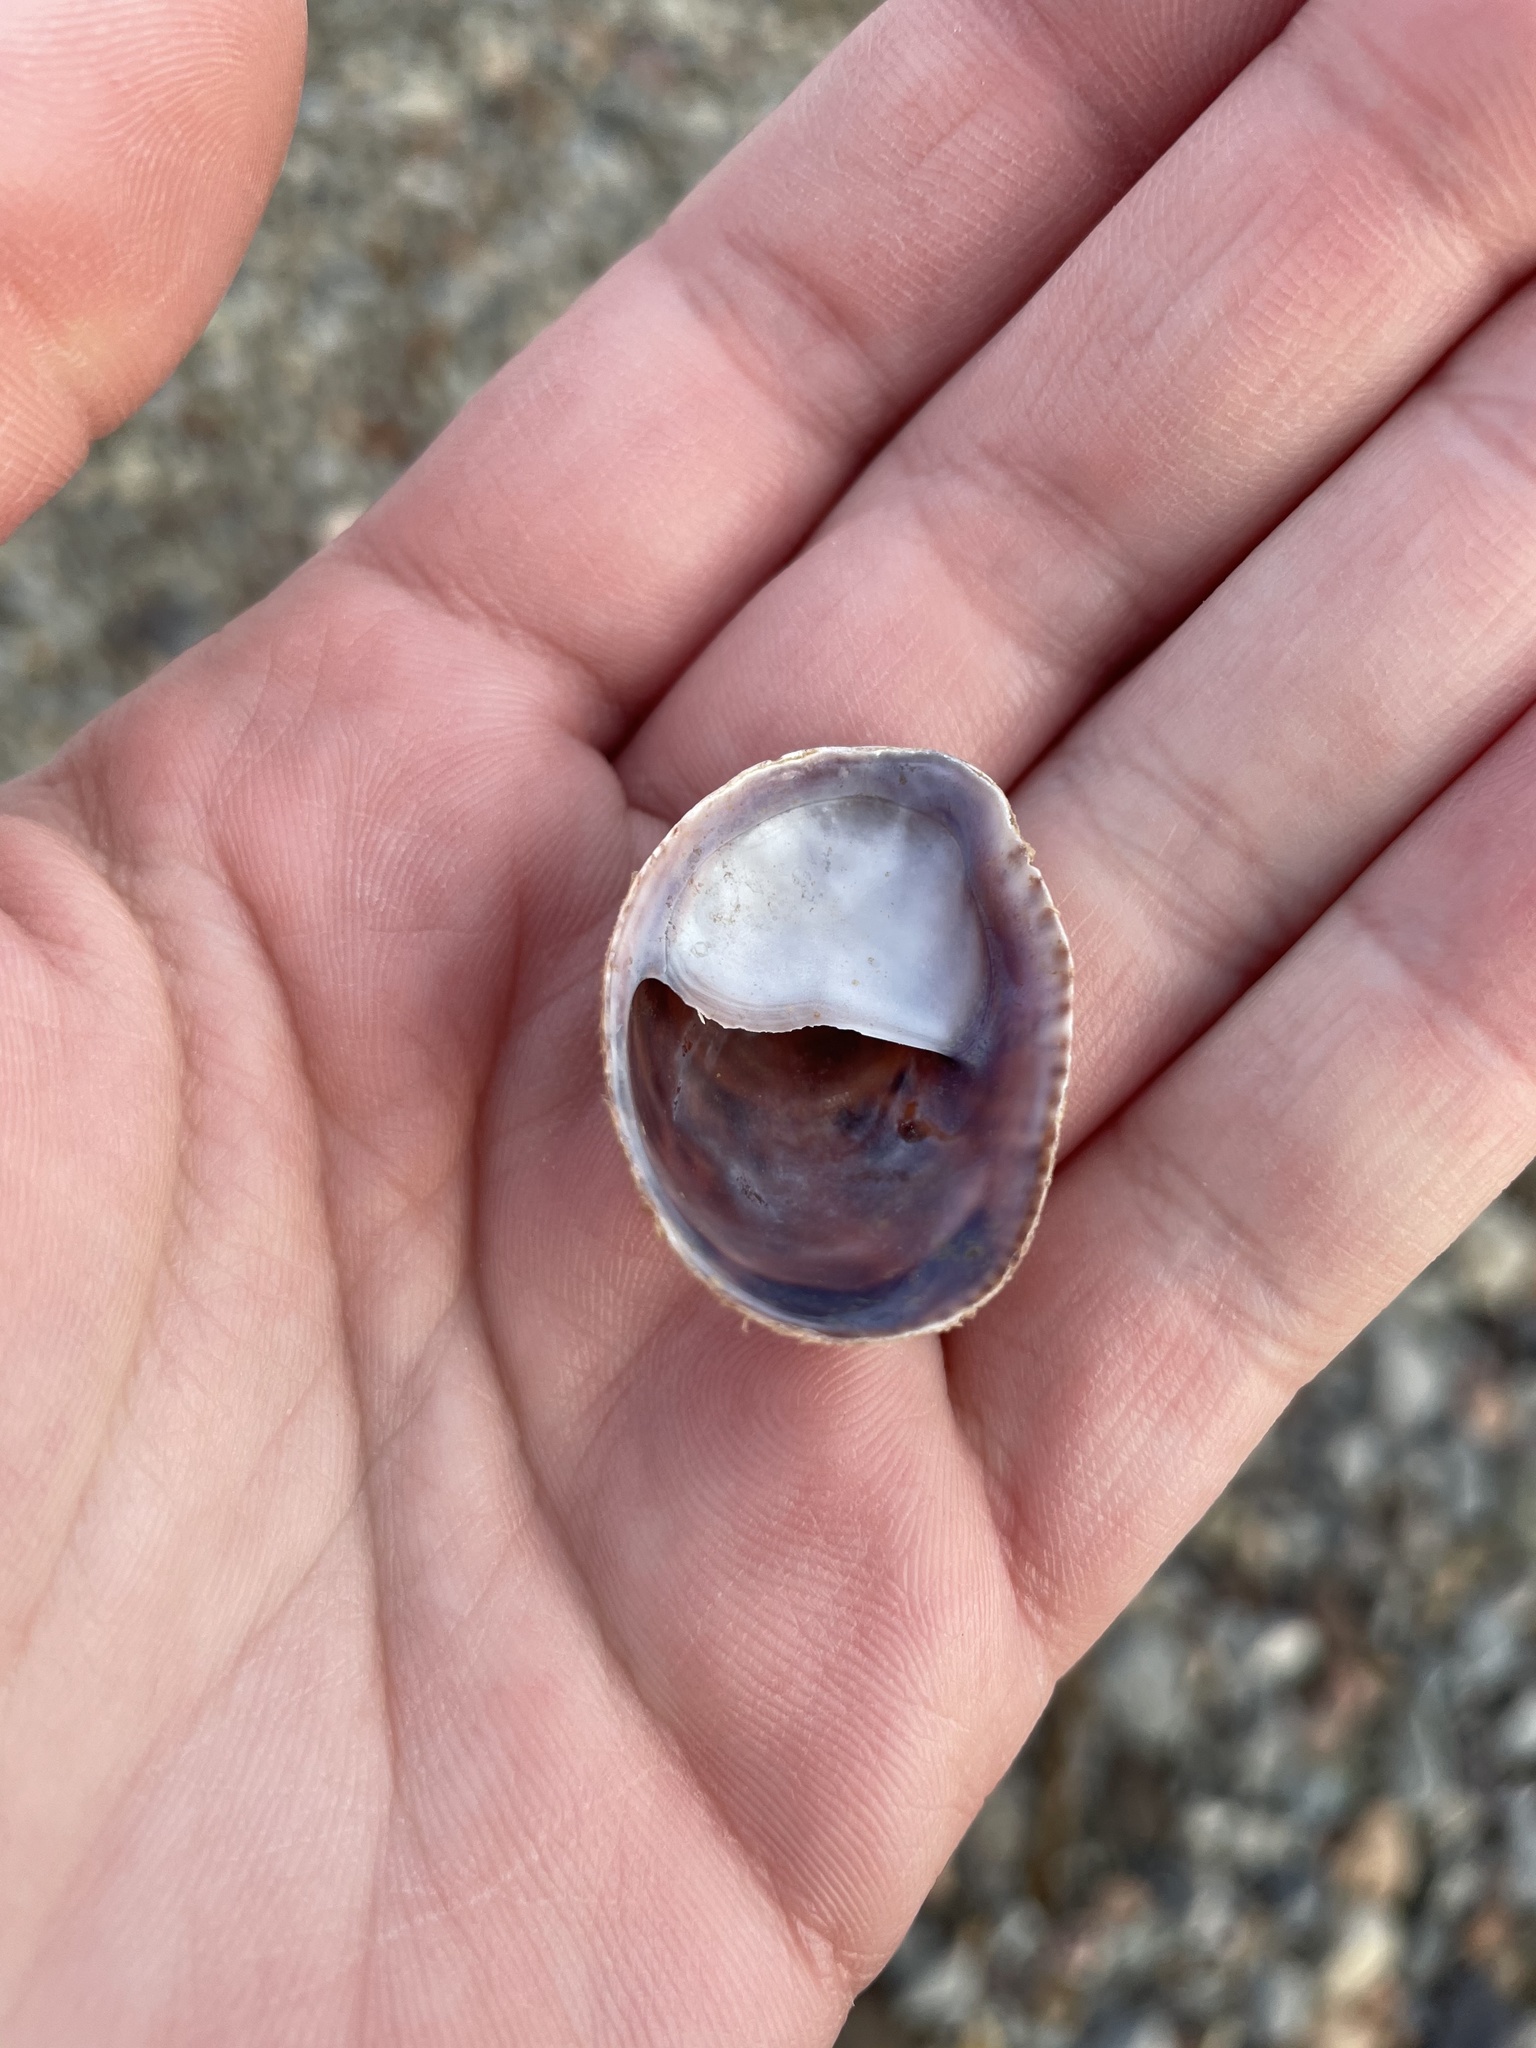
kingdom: Animalia
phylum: Mollusca
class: Gastropoda
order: Littorinimorpha
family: Calyptraeidae
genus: Crepidula
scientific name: Crepidula fornicata
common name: Slipper limpet
